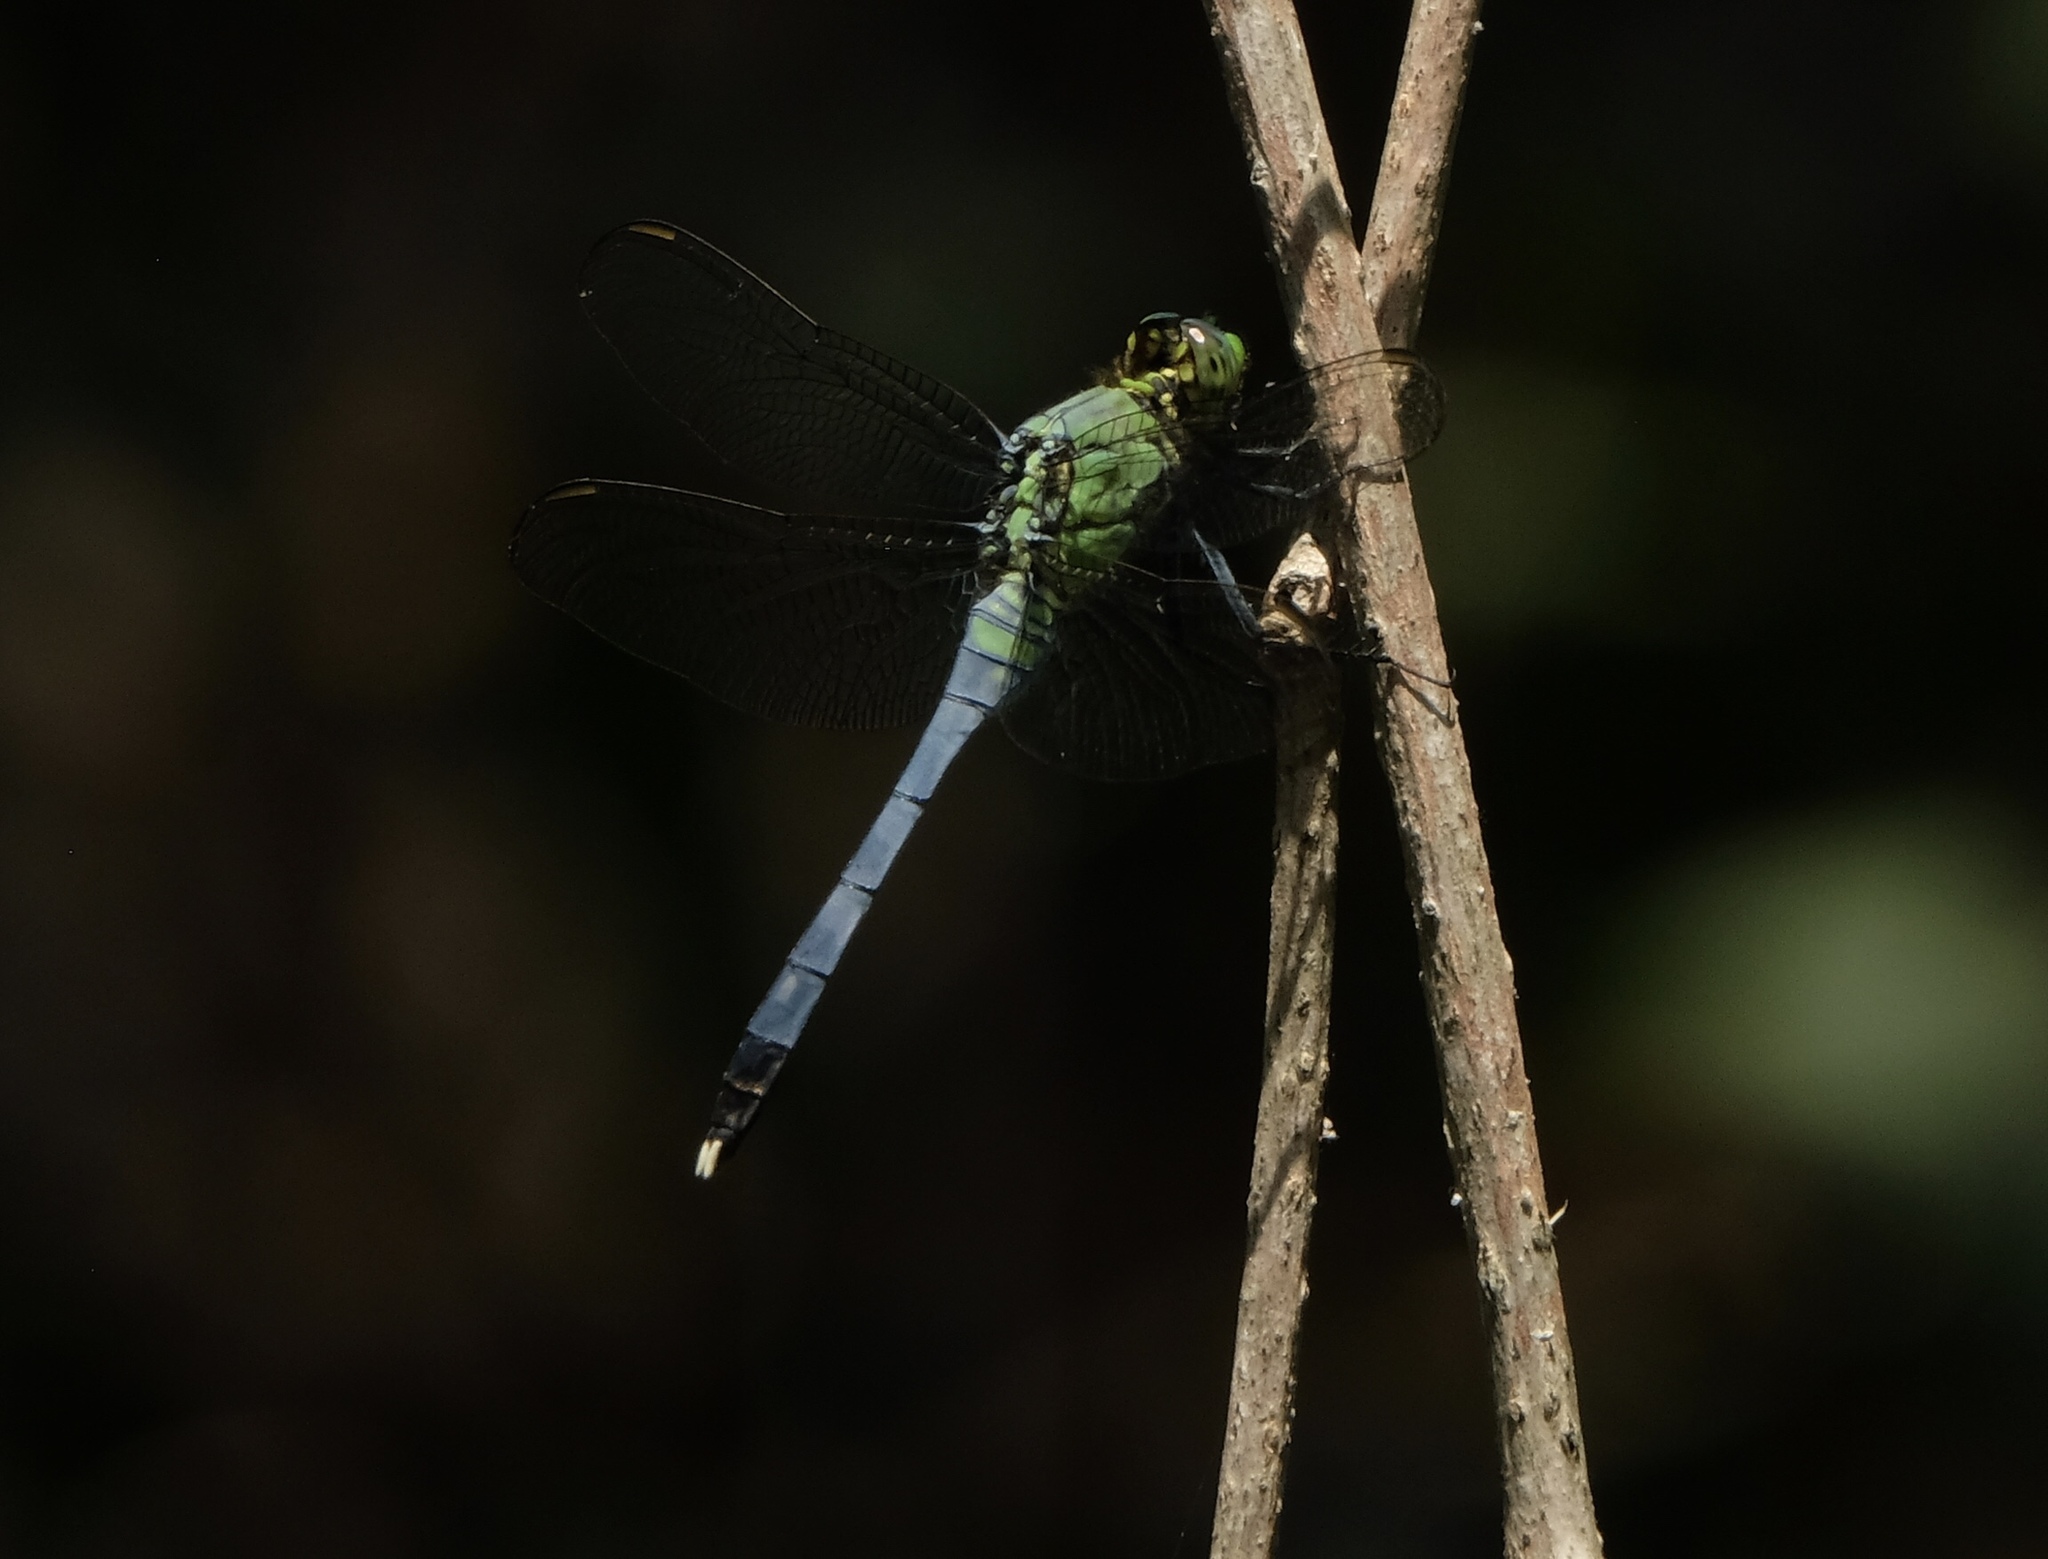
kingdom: Animalia
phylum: Arthropoda
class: Insecta
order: Odonata
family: Libellulidae
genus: Erythemis
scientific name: Erythemis simplicicollis
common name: Eastern pondhawk
